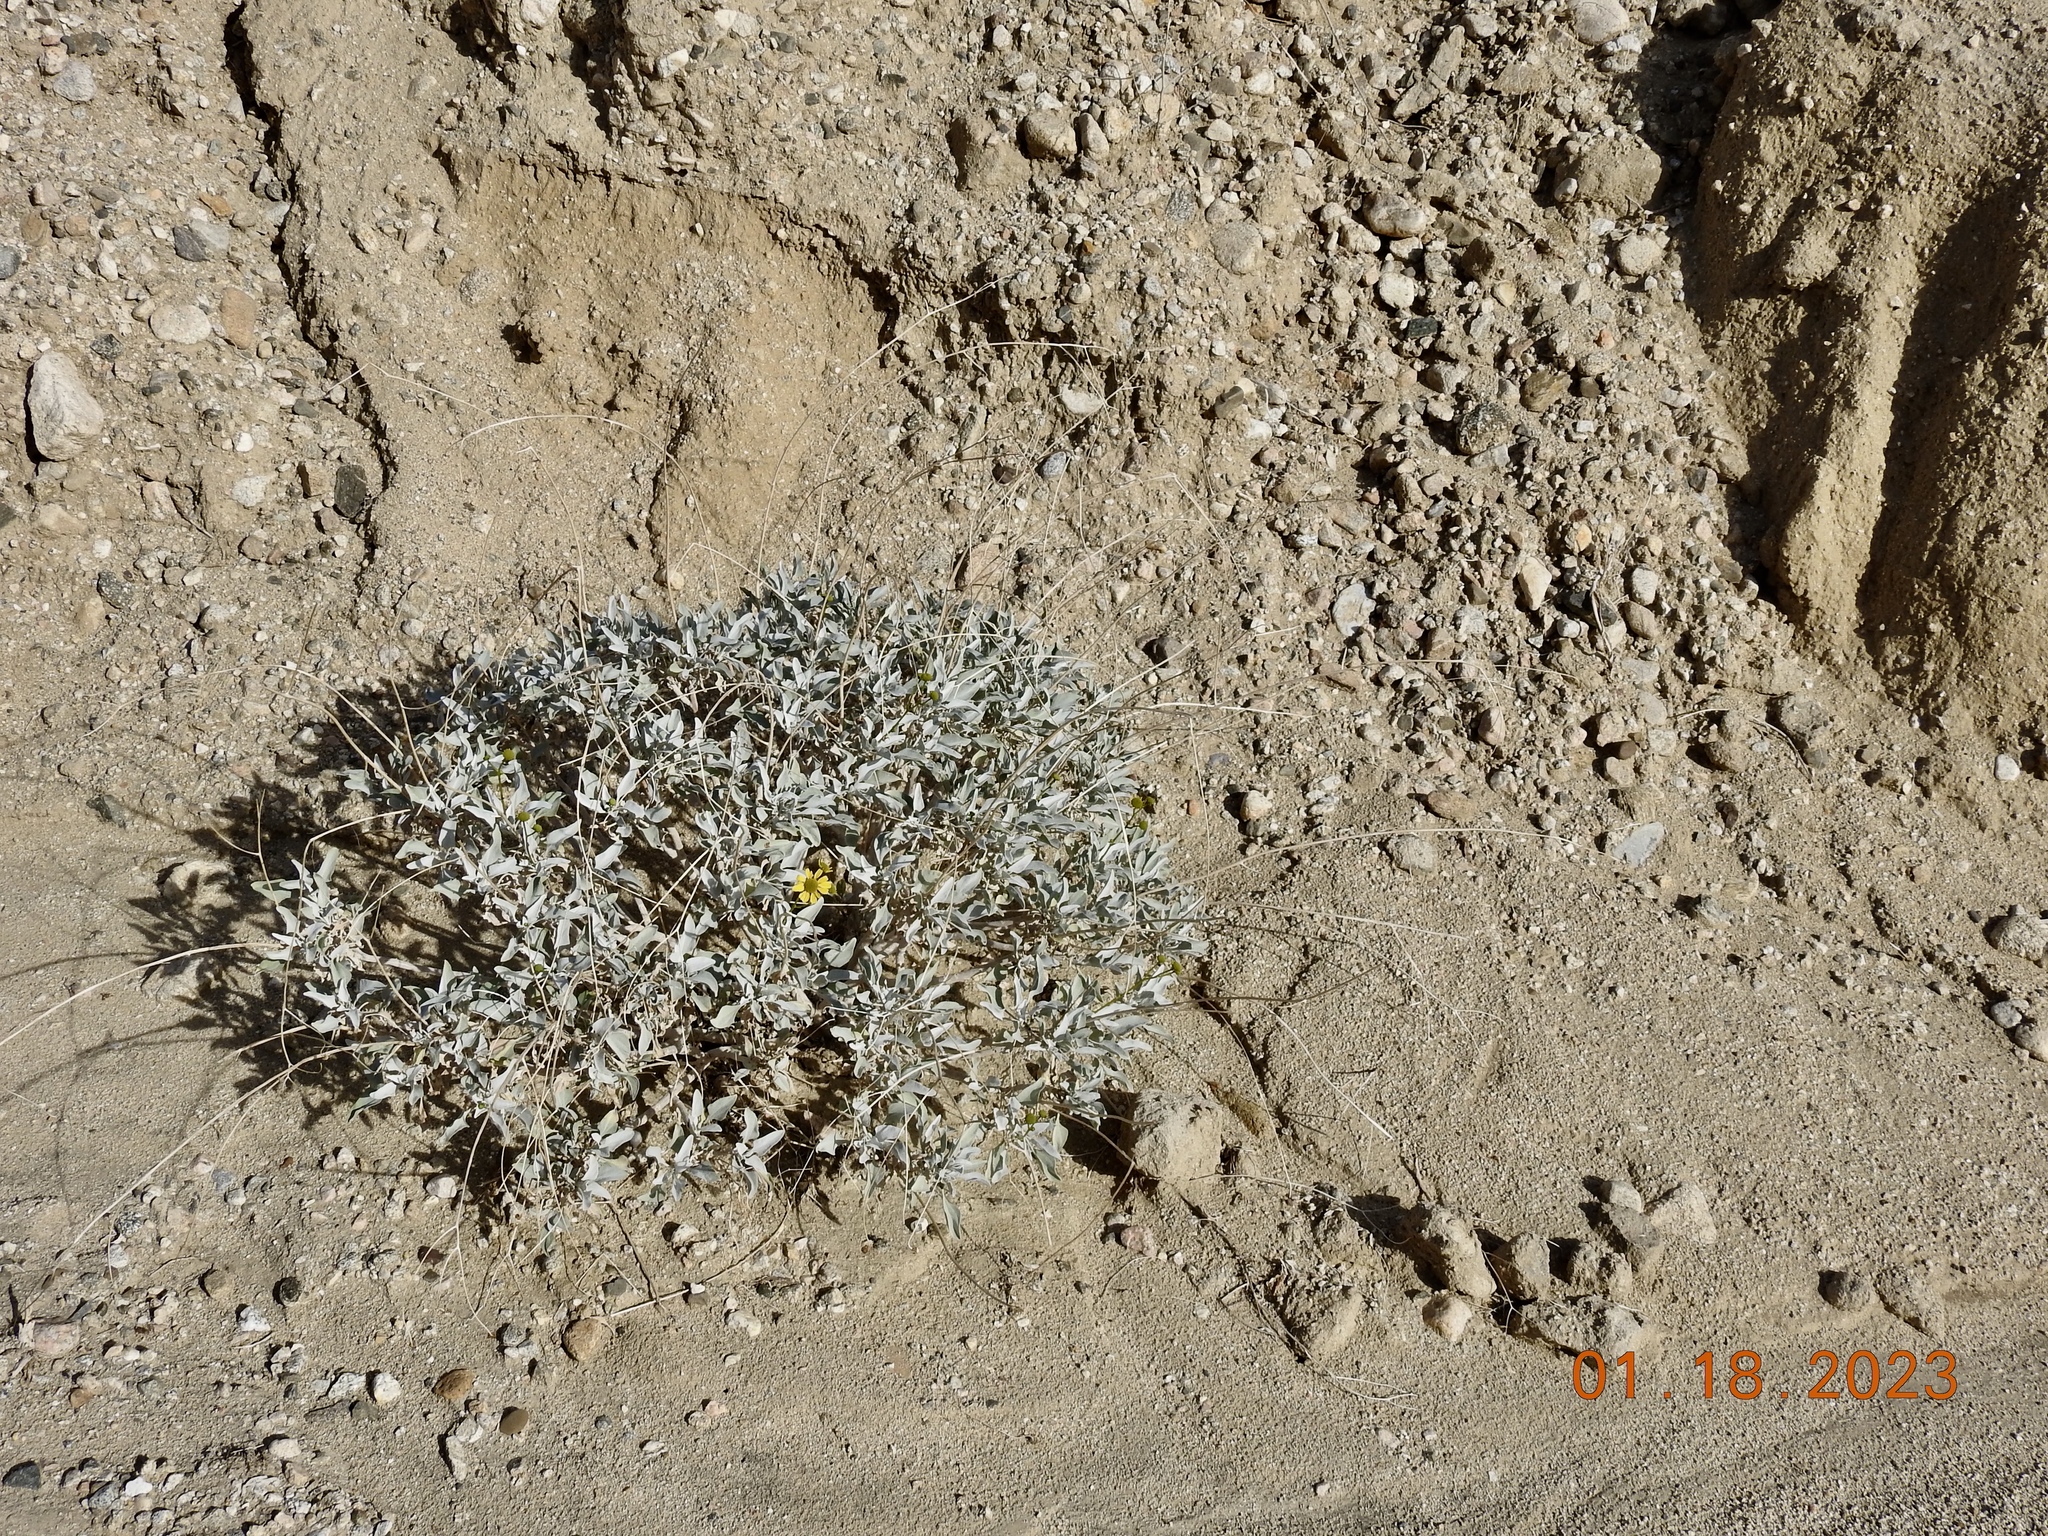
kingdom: Plantae
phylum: Tracheophyta
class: Magnoliopsida
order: Asterales
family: Asteraceae
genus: Encelia
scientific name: Encelia farinosa
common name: Brittlebush
